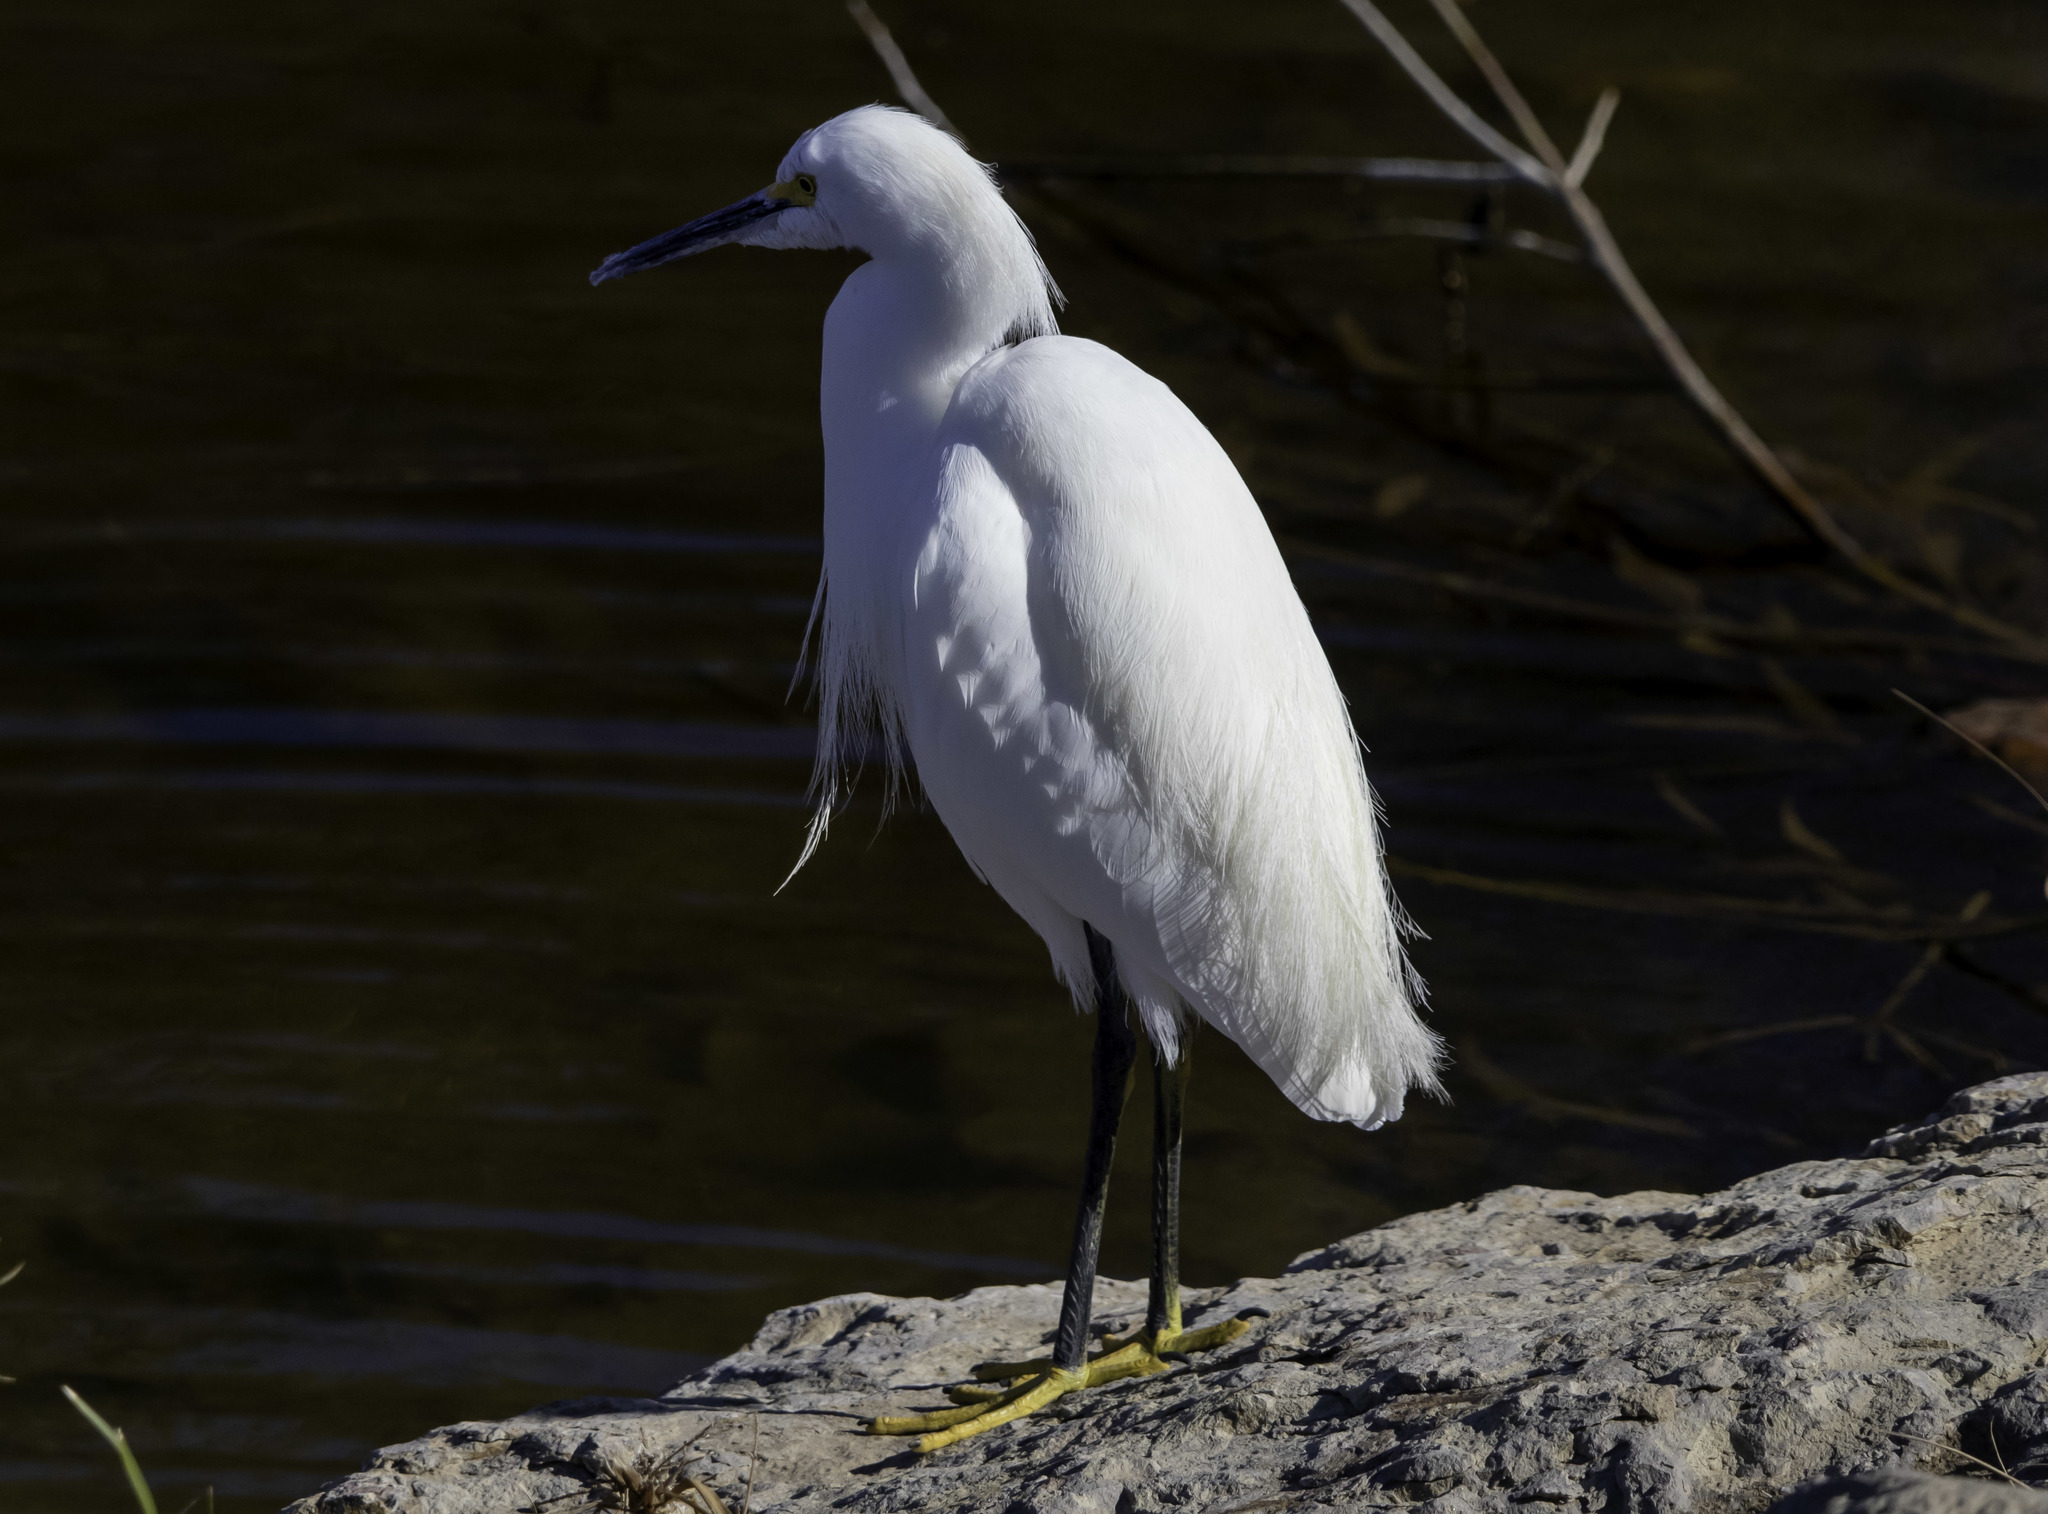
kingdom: Animalia
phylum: Chordata
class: Aves
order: Pelecaniformes
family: Ardeidae
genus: Egretta
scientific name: Egretta thula
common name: Snowy egret
